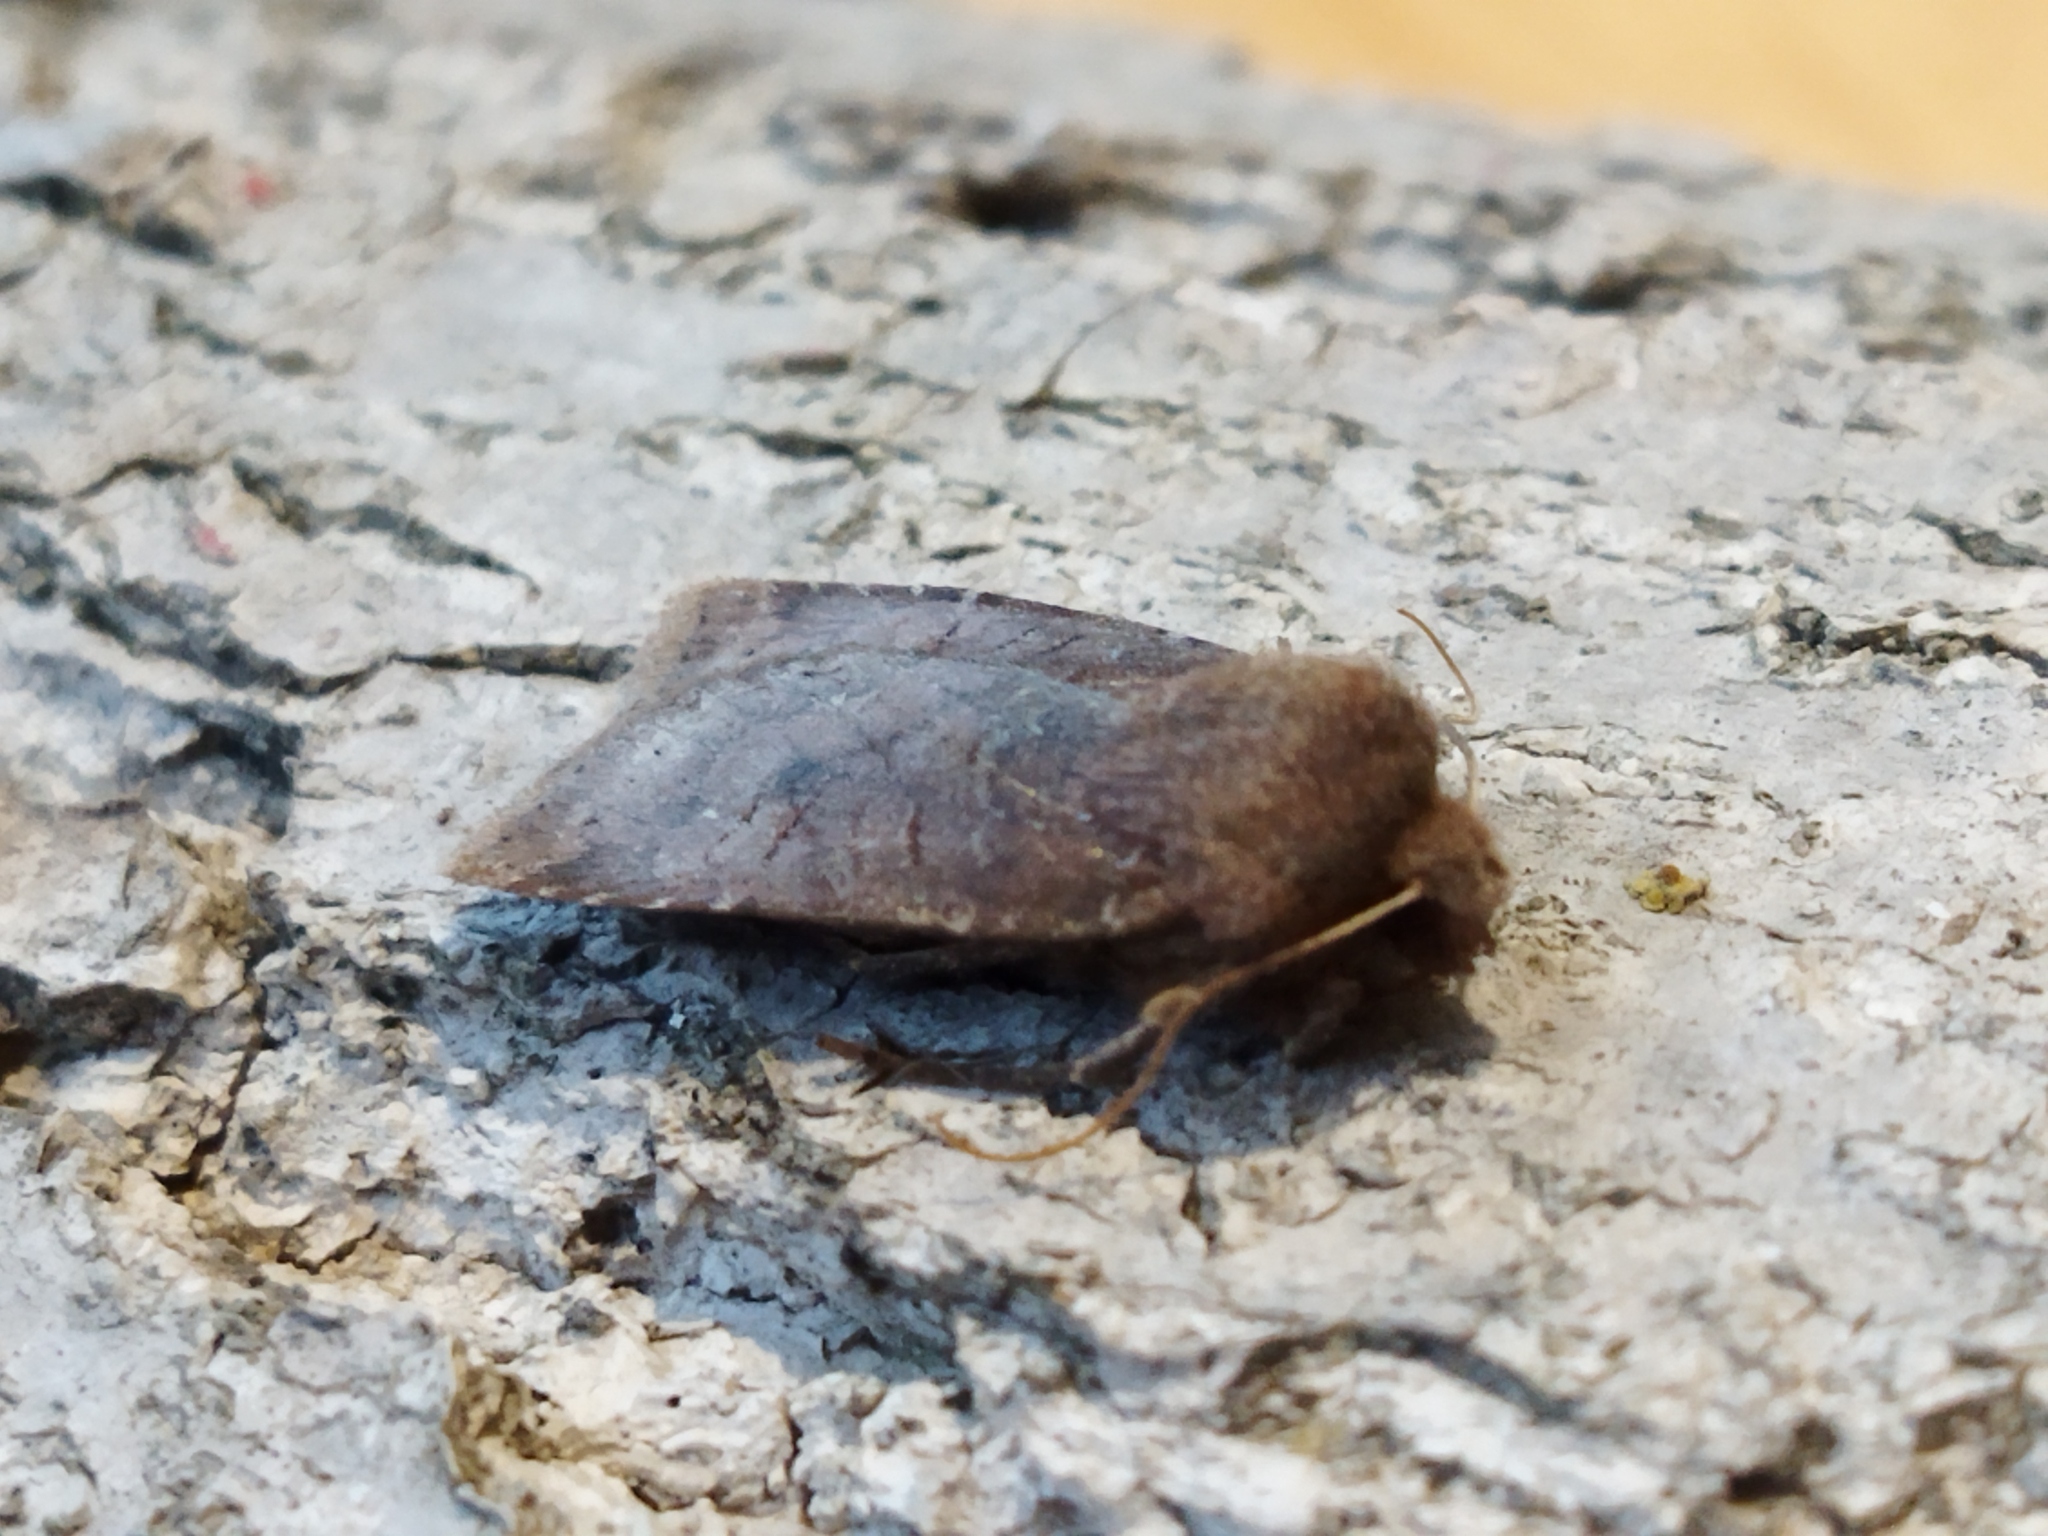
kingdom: Animalia
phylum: Arthropoda
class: Insecta
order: Lepidoptera
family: Noctuidae
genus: Conistra
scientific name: Conistra vaccinii
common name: Chestnut
